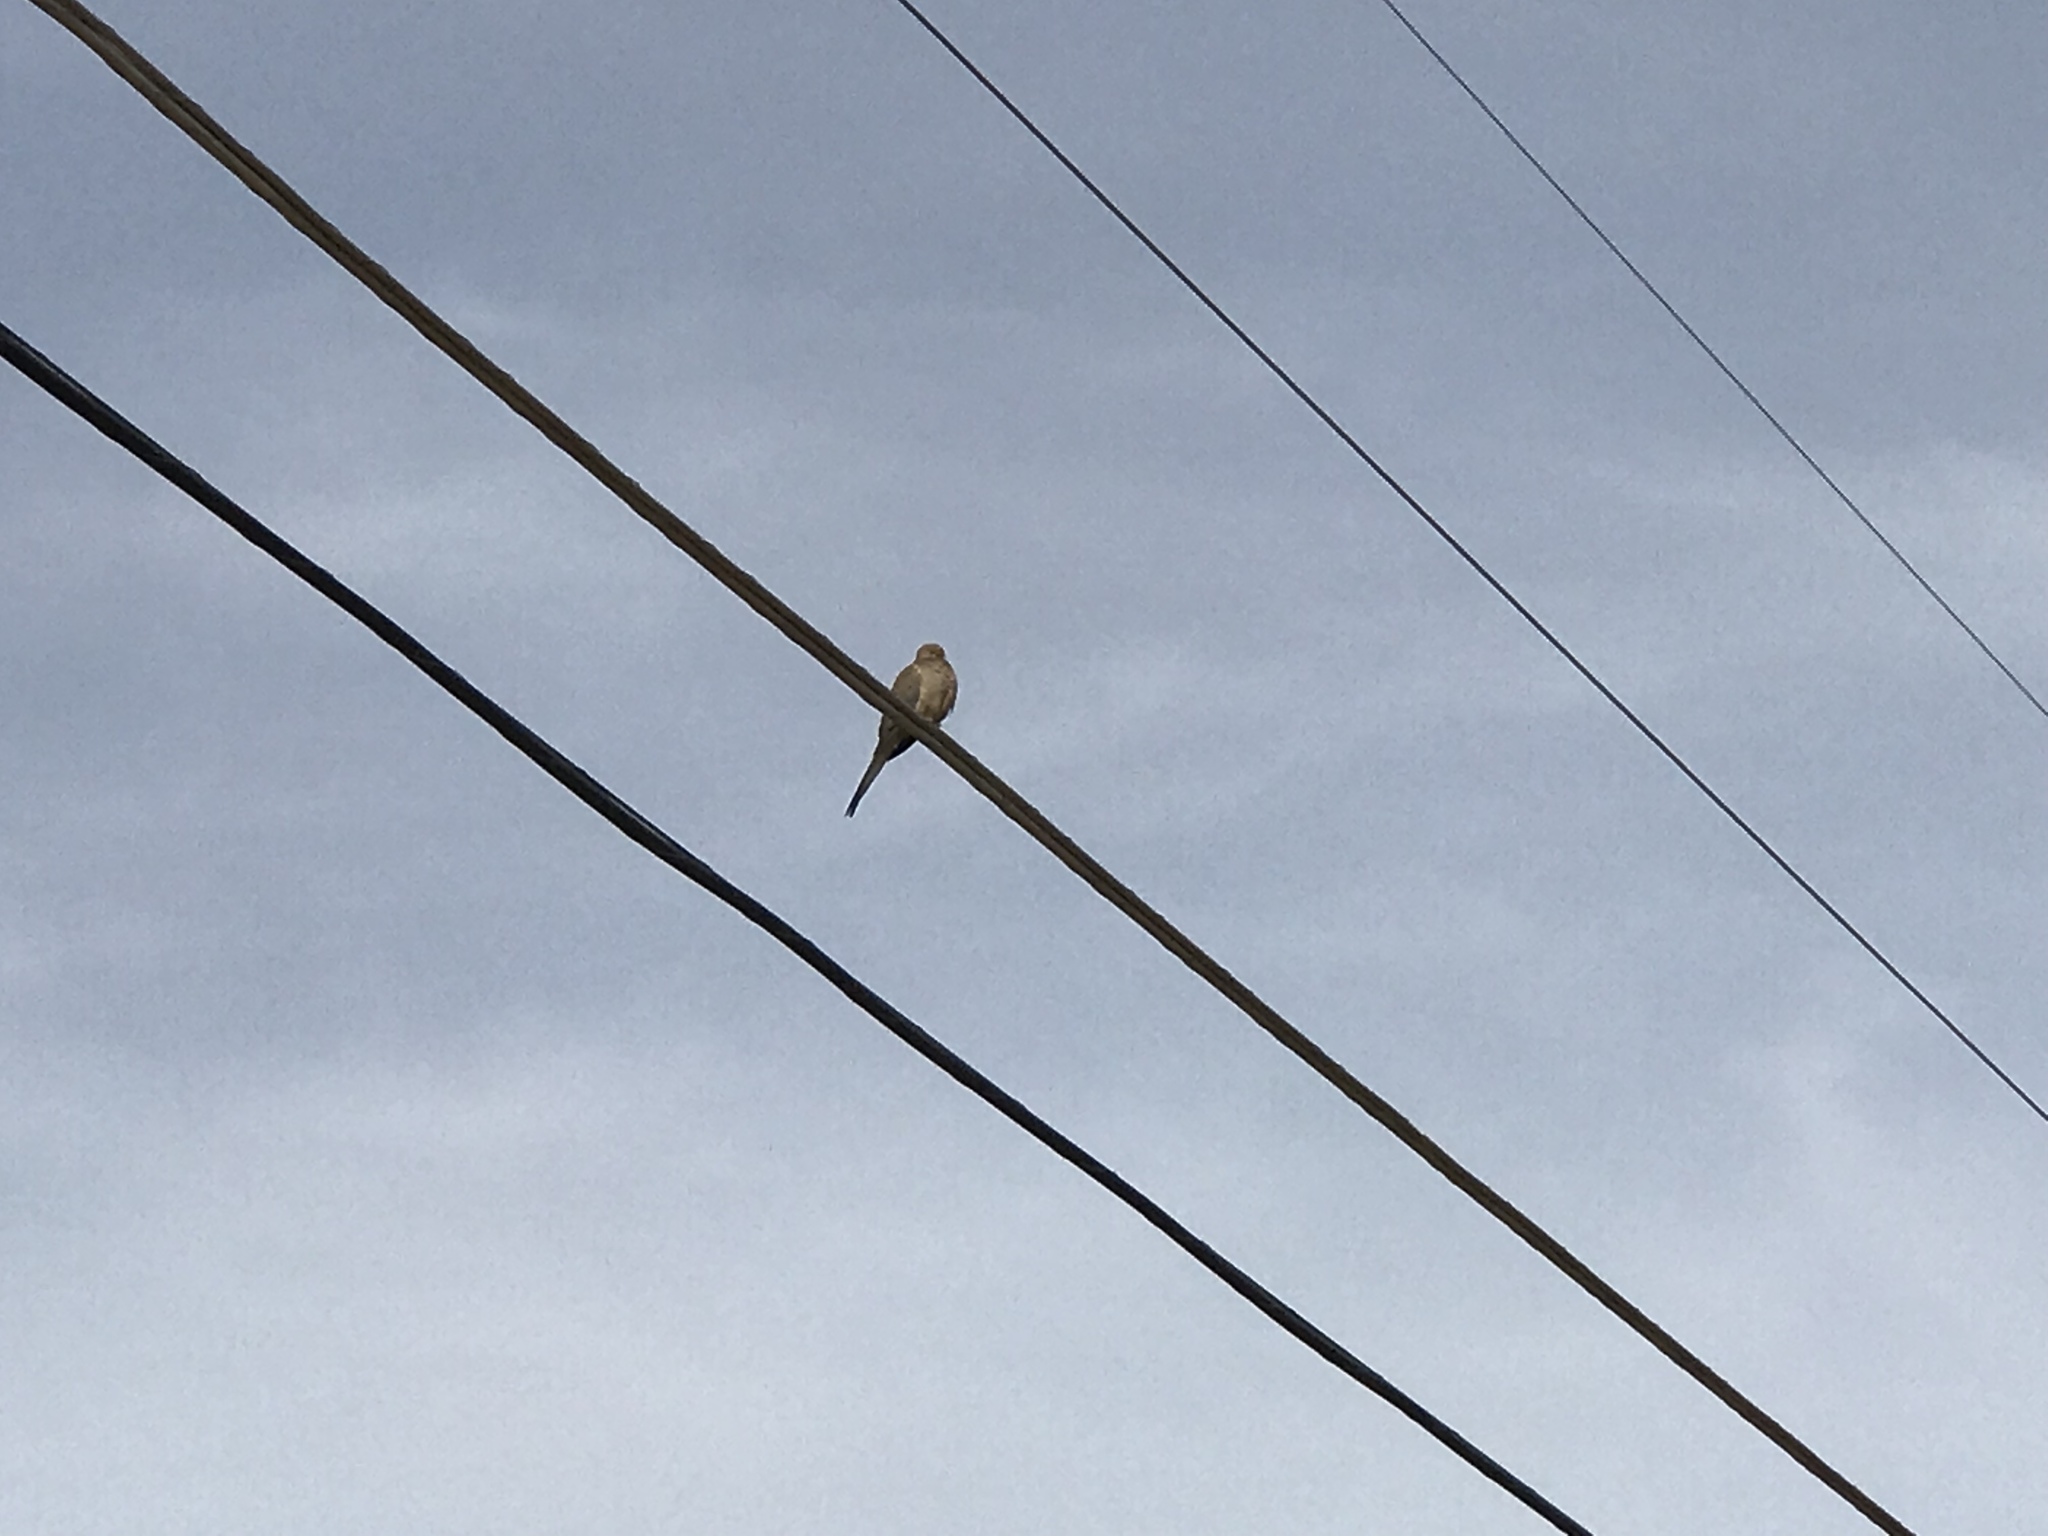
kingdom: Animalia
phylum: Chordata
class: Aves
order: Columbiformes
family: Columbidae
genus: Zenaida
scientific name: Zenaida macroura
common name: Mourning dove
